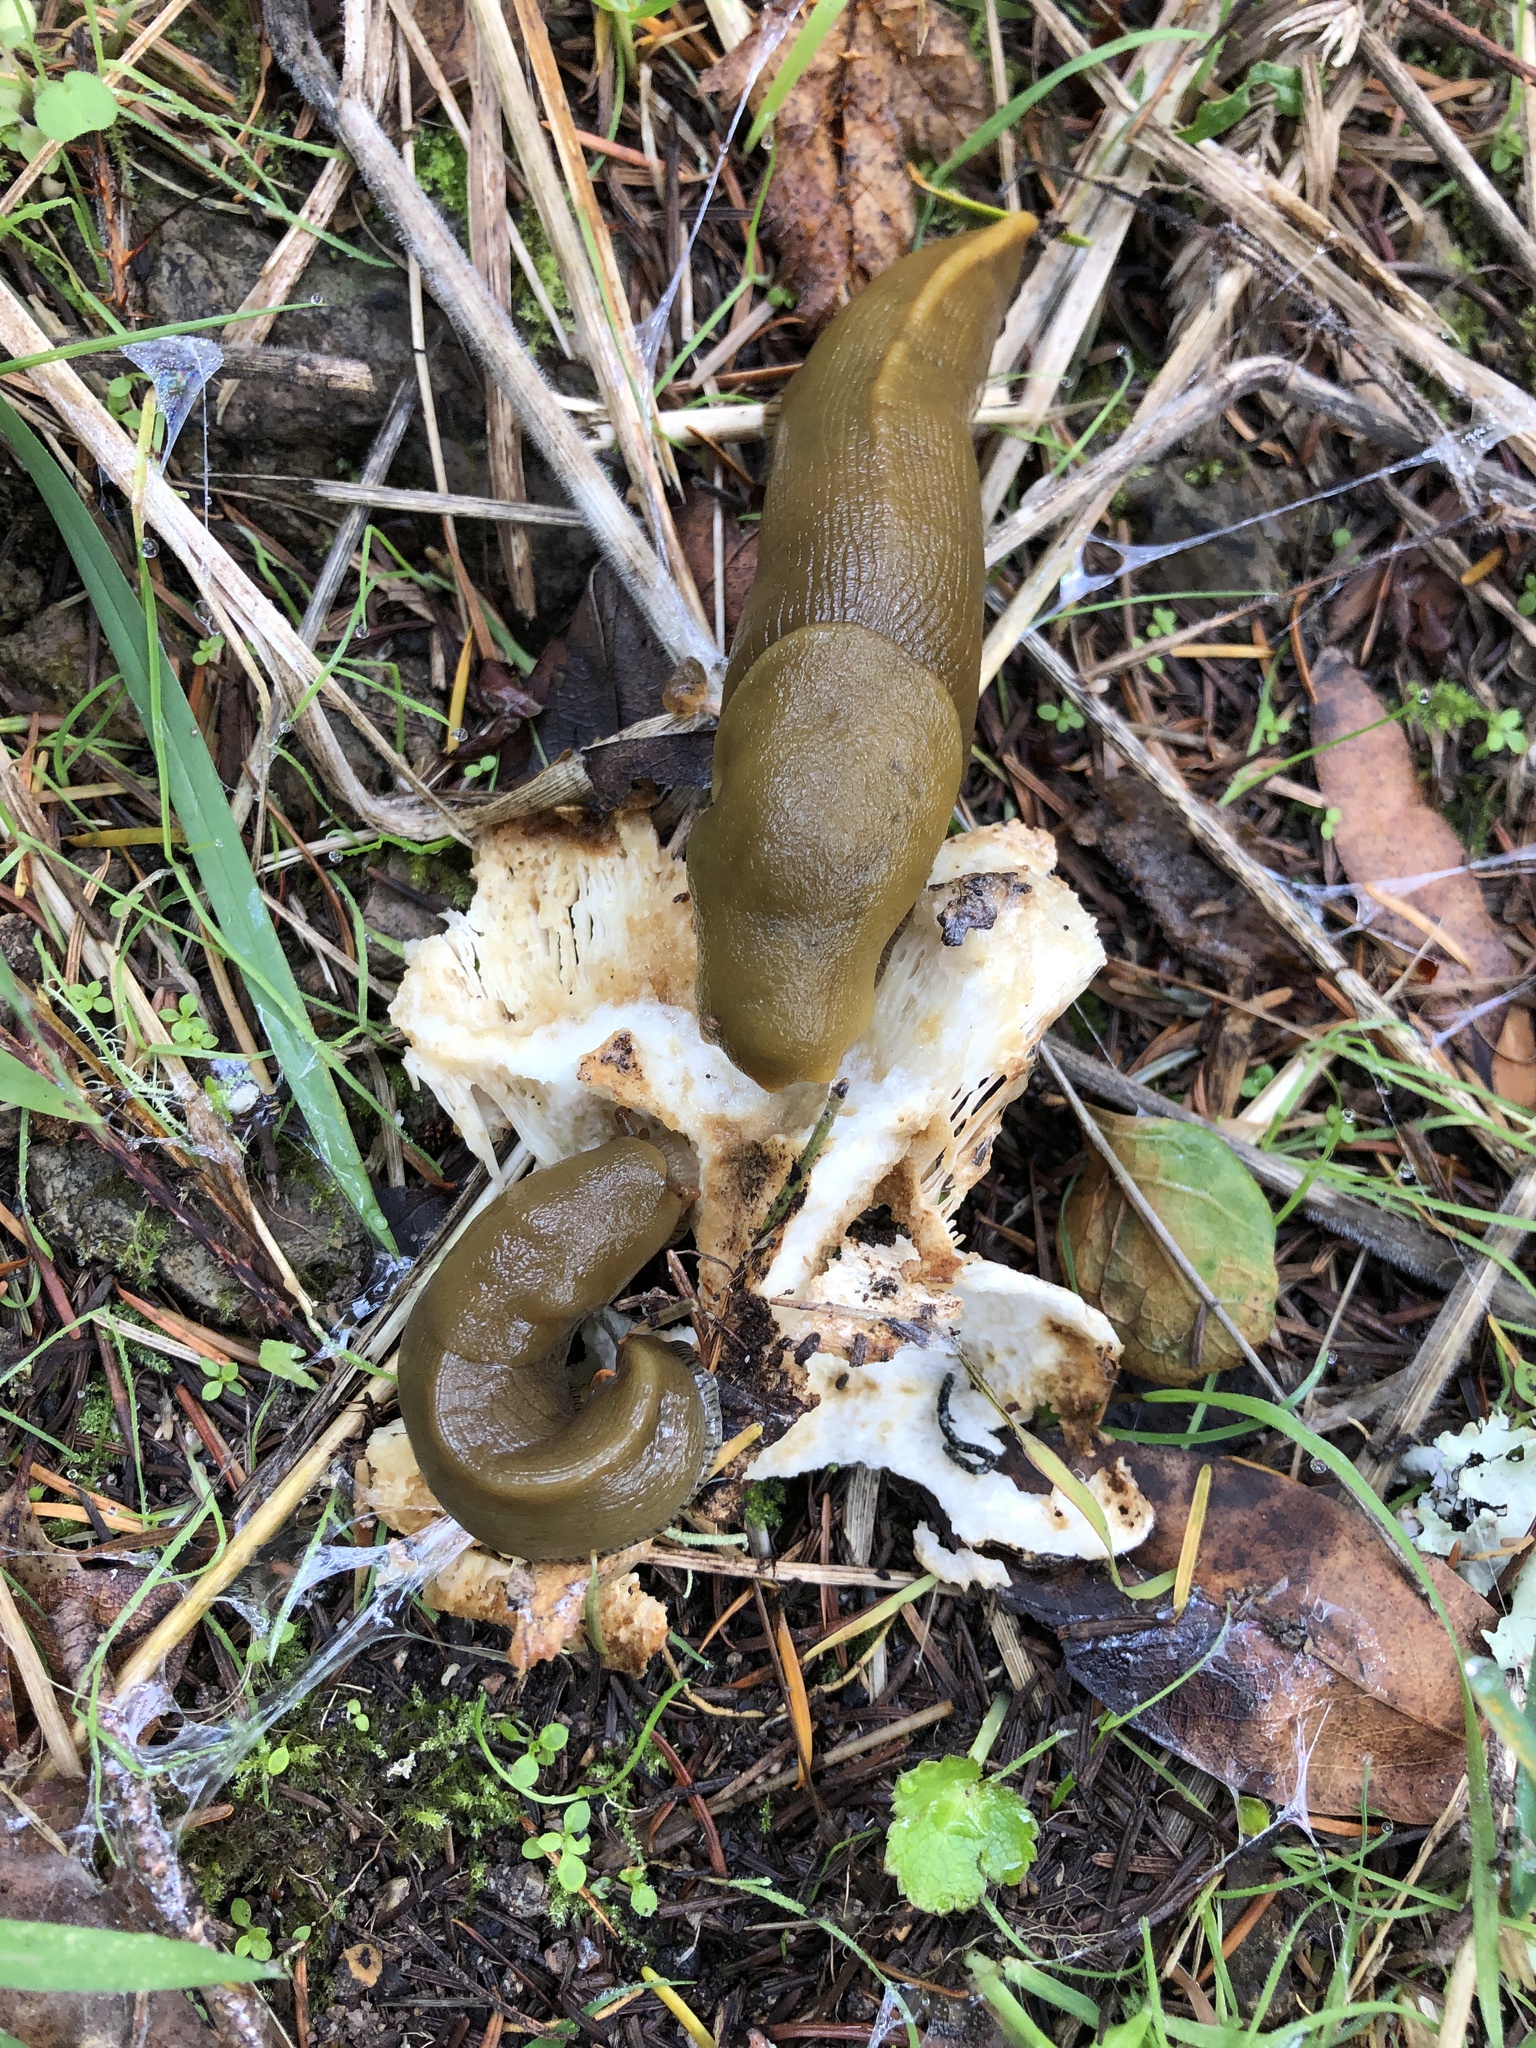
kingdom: Animalia
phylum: Mollusca
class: Gastropoda
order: Stylommatophora
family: Ariolimacidae
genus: Ariolimax
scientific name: Ariolimax buttoni
